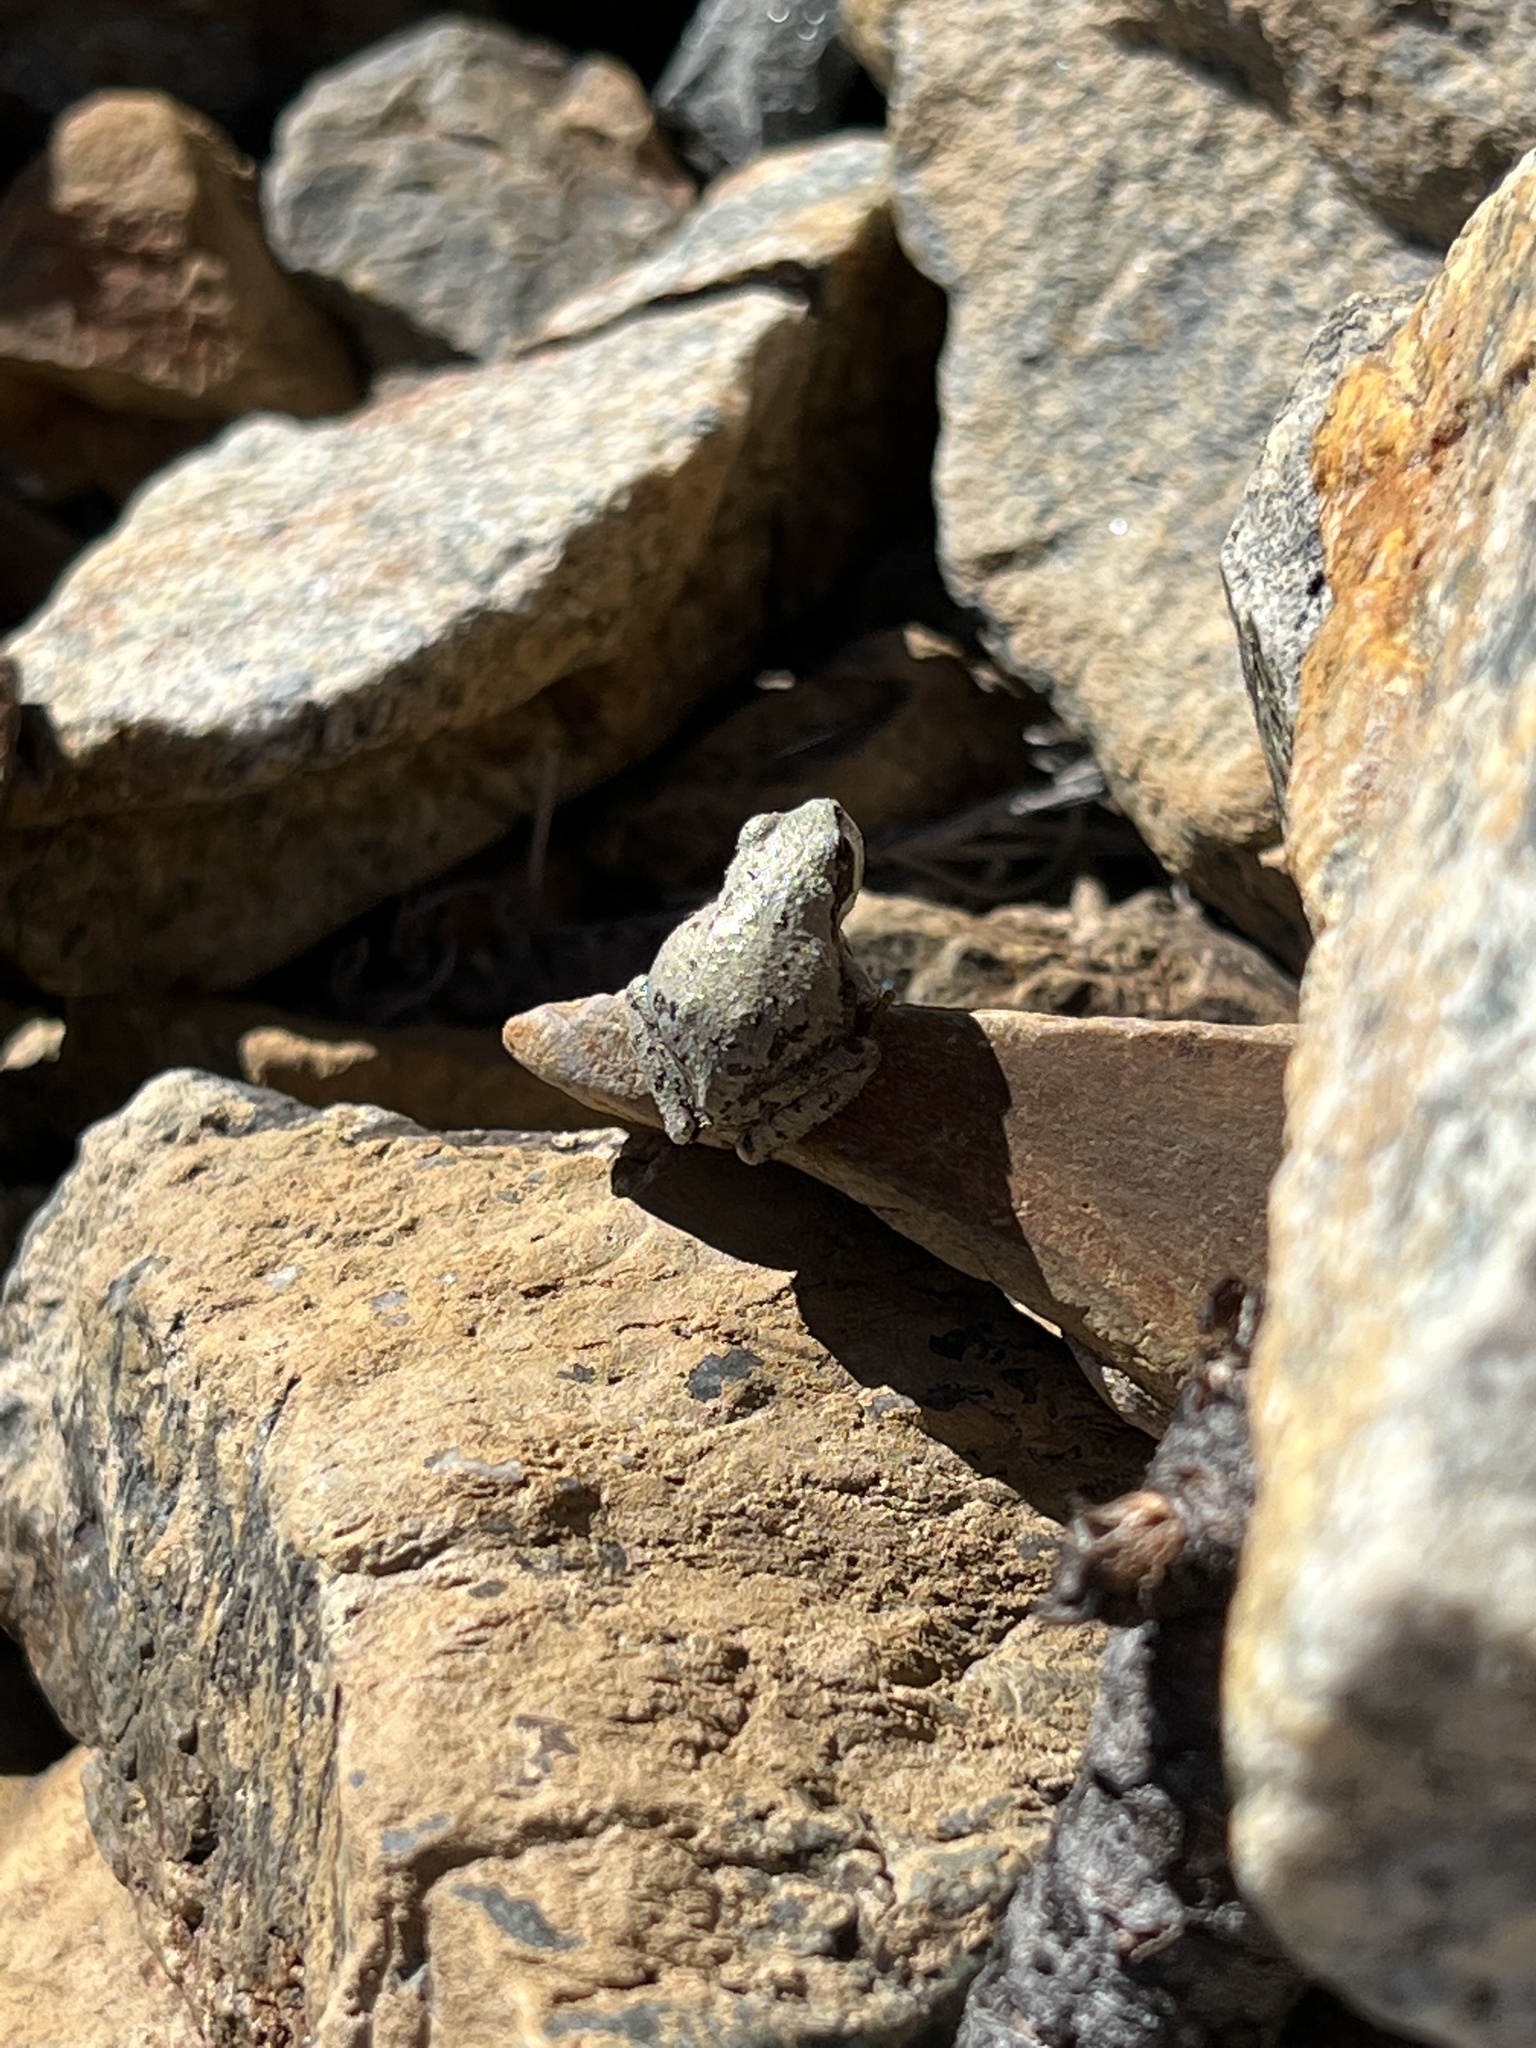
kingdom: Animalia
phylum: Chordata
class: Amphibia
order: Anura
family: Hylidae
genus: Pseudacris
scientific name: Pseudacris regilla
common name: Pacific chorus frog
